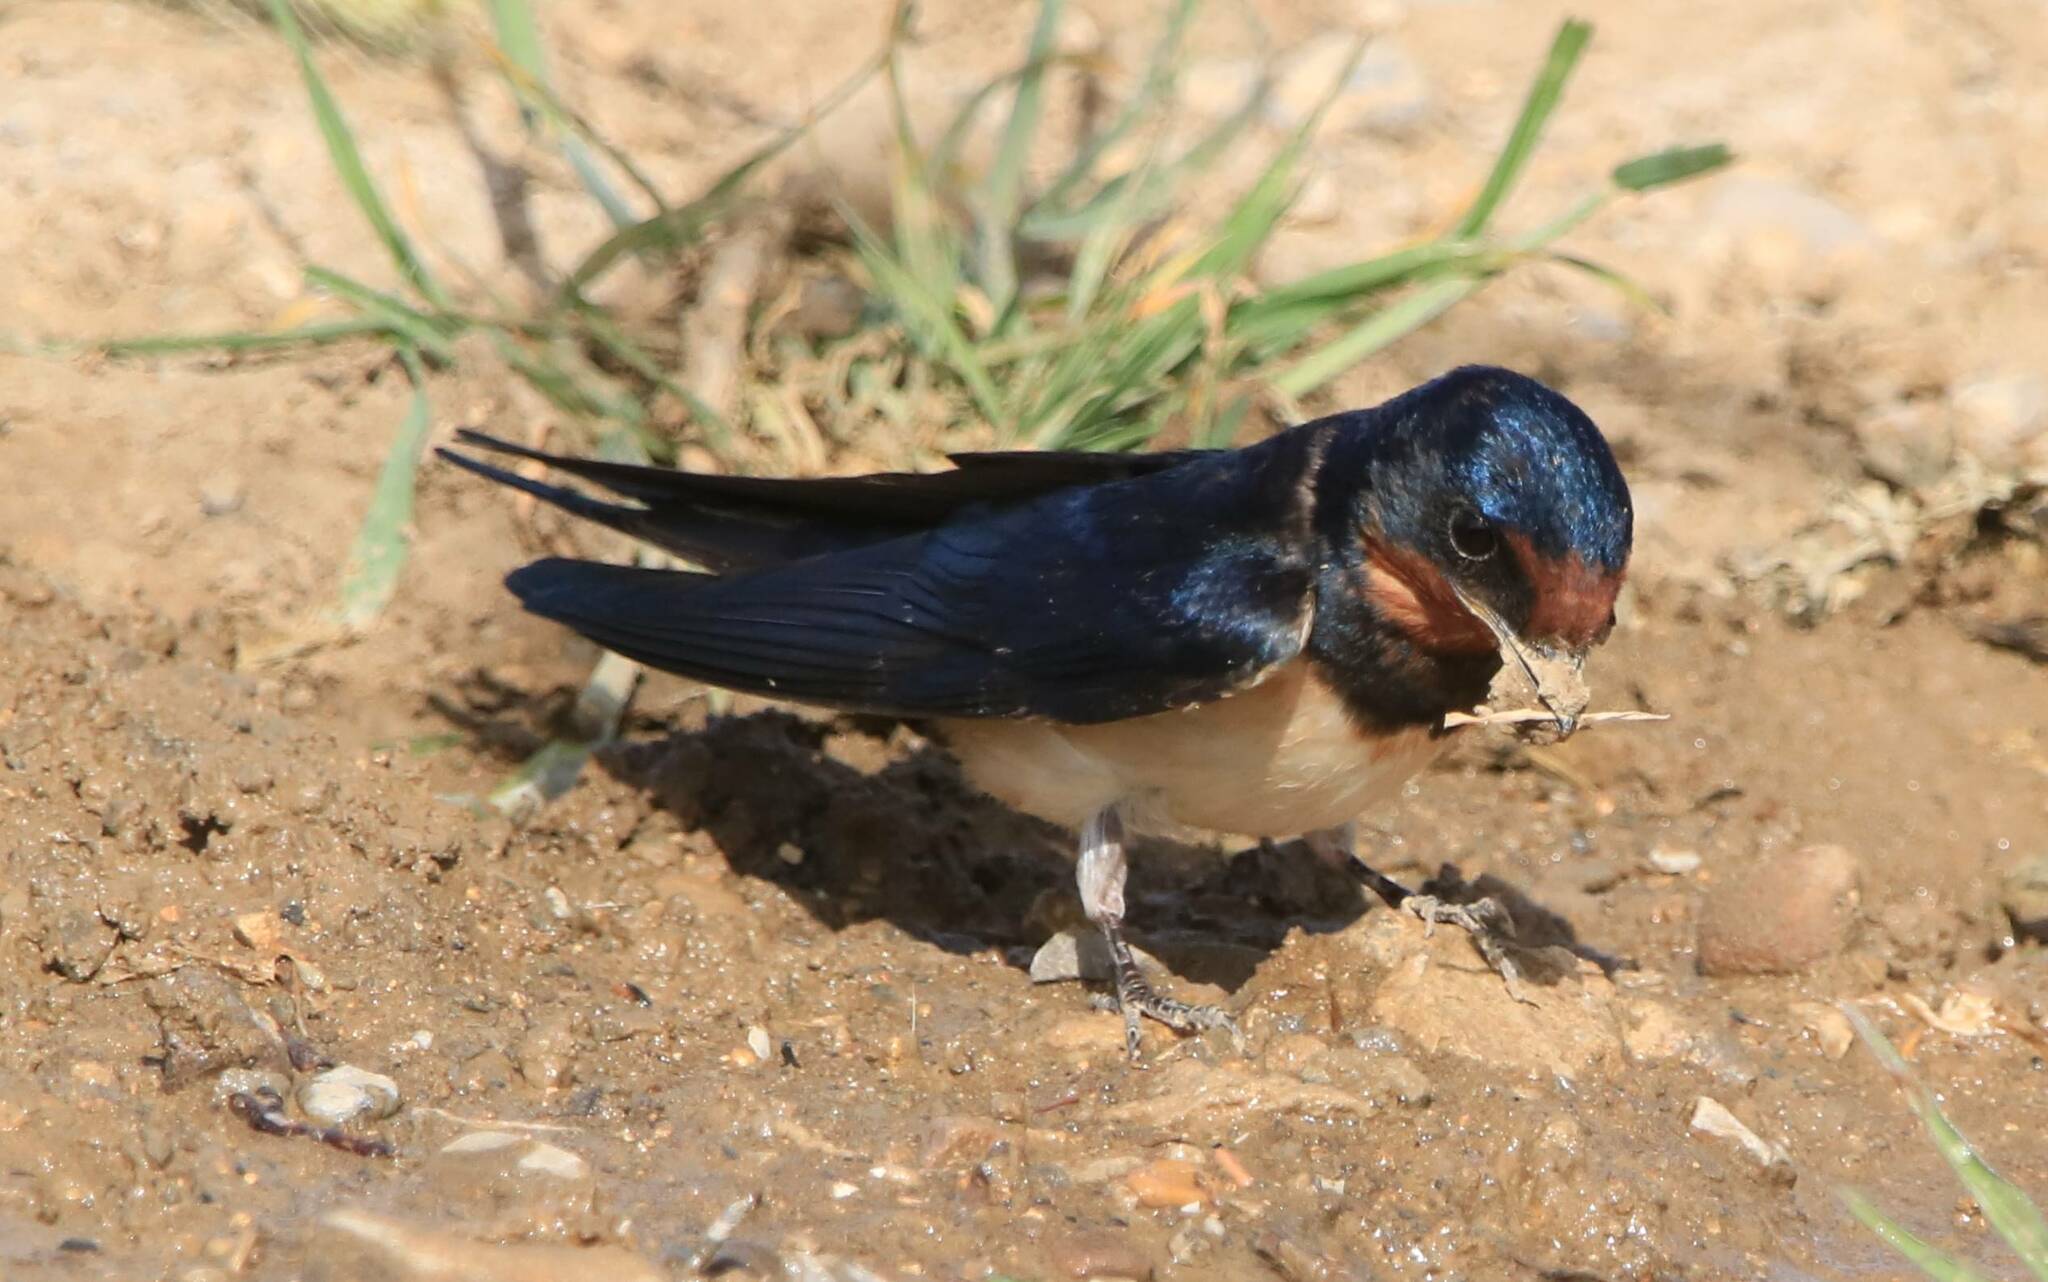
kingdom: Animalia
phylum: Chordata
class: Aves
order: Passeriformes
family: Hirundinidae
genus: Hirundo
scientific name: Hirundo rustica
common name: Barn swallow
